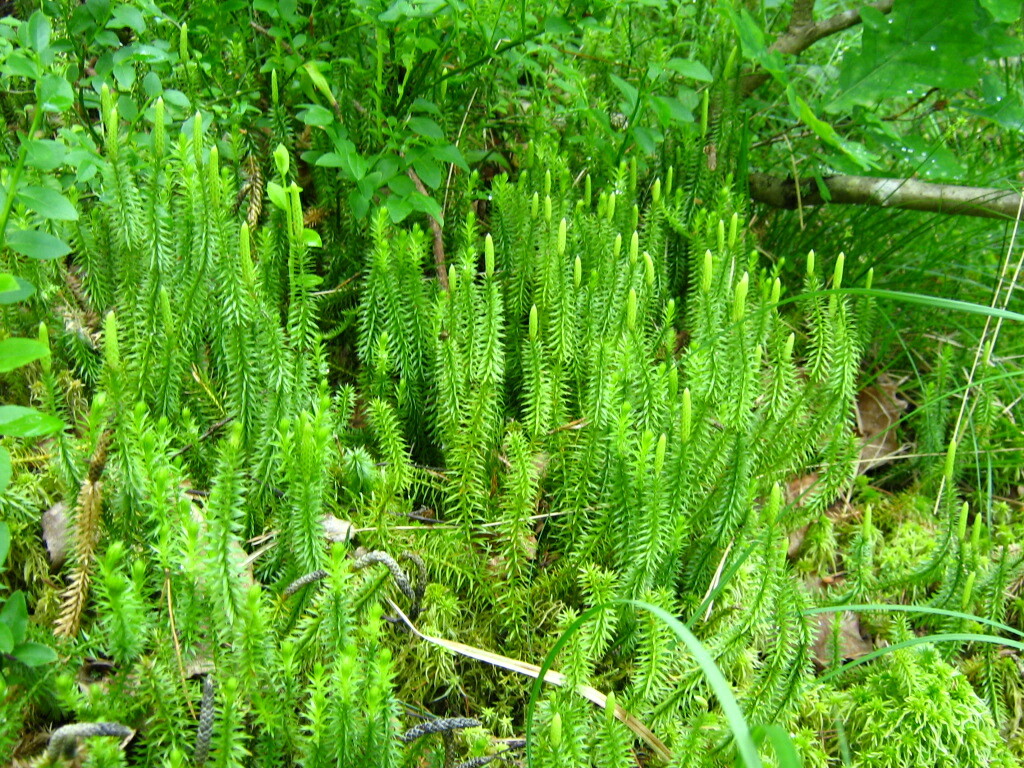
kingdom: Plantae
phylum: Tracheophyta
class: Lycopodiopsida
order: Lycopodiales
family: Lycopodiaceae
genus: Spinulum
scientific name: Spinulum annotinum
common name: Interrupted club-moss
